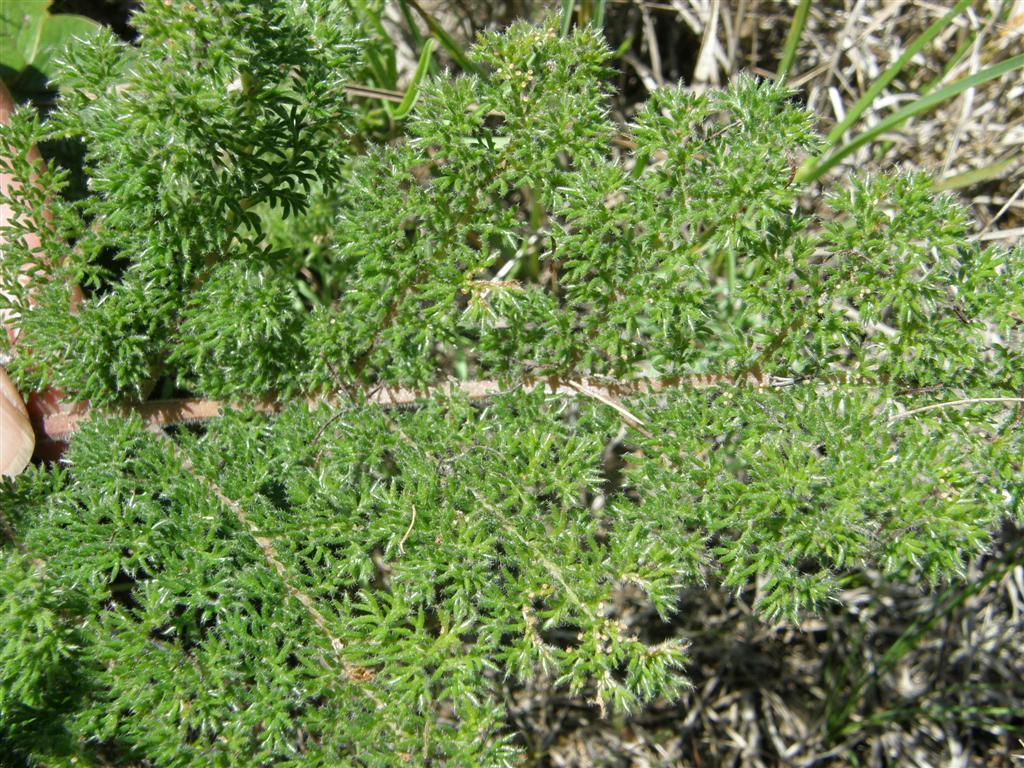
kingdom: Plantae
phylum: Tracheophyta
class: Magnoliopsida
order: Geraniales
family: Geraniaceae
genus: Pelargonium
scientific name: Pelargonium triste
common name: Night-scent pelargonium
